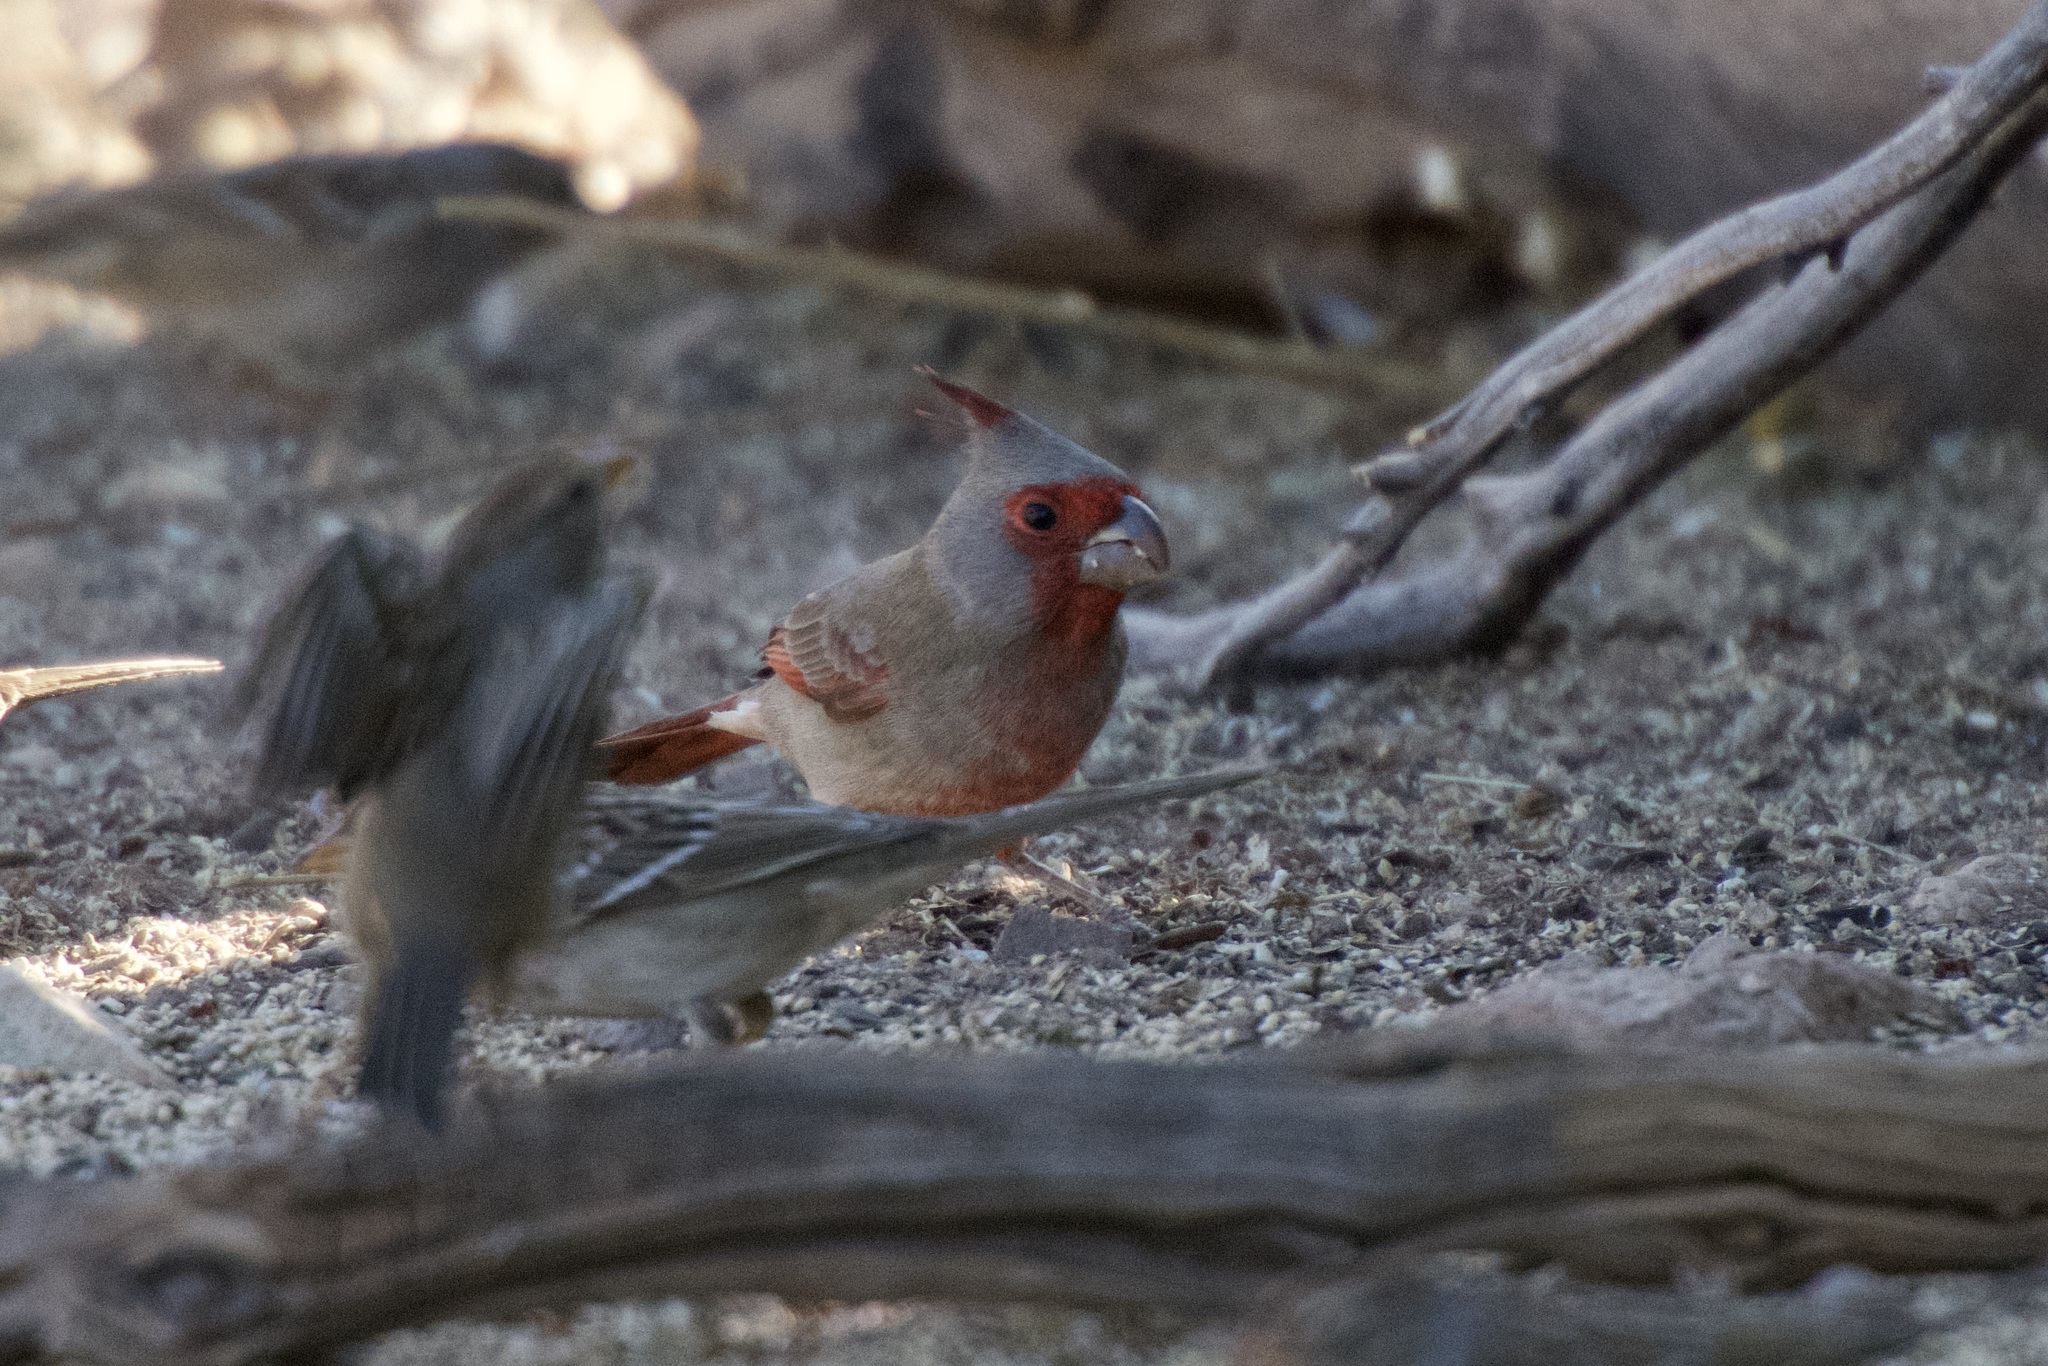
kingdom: Animalia
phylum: Chordata
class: Aves
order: Passeriformes
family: Cardinalidae
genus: Cardinalis
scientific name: Cardinalis sinuatus
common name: Pyrrhuloxia
